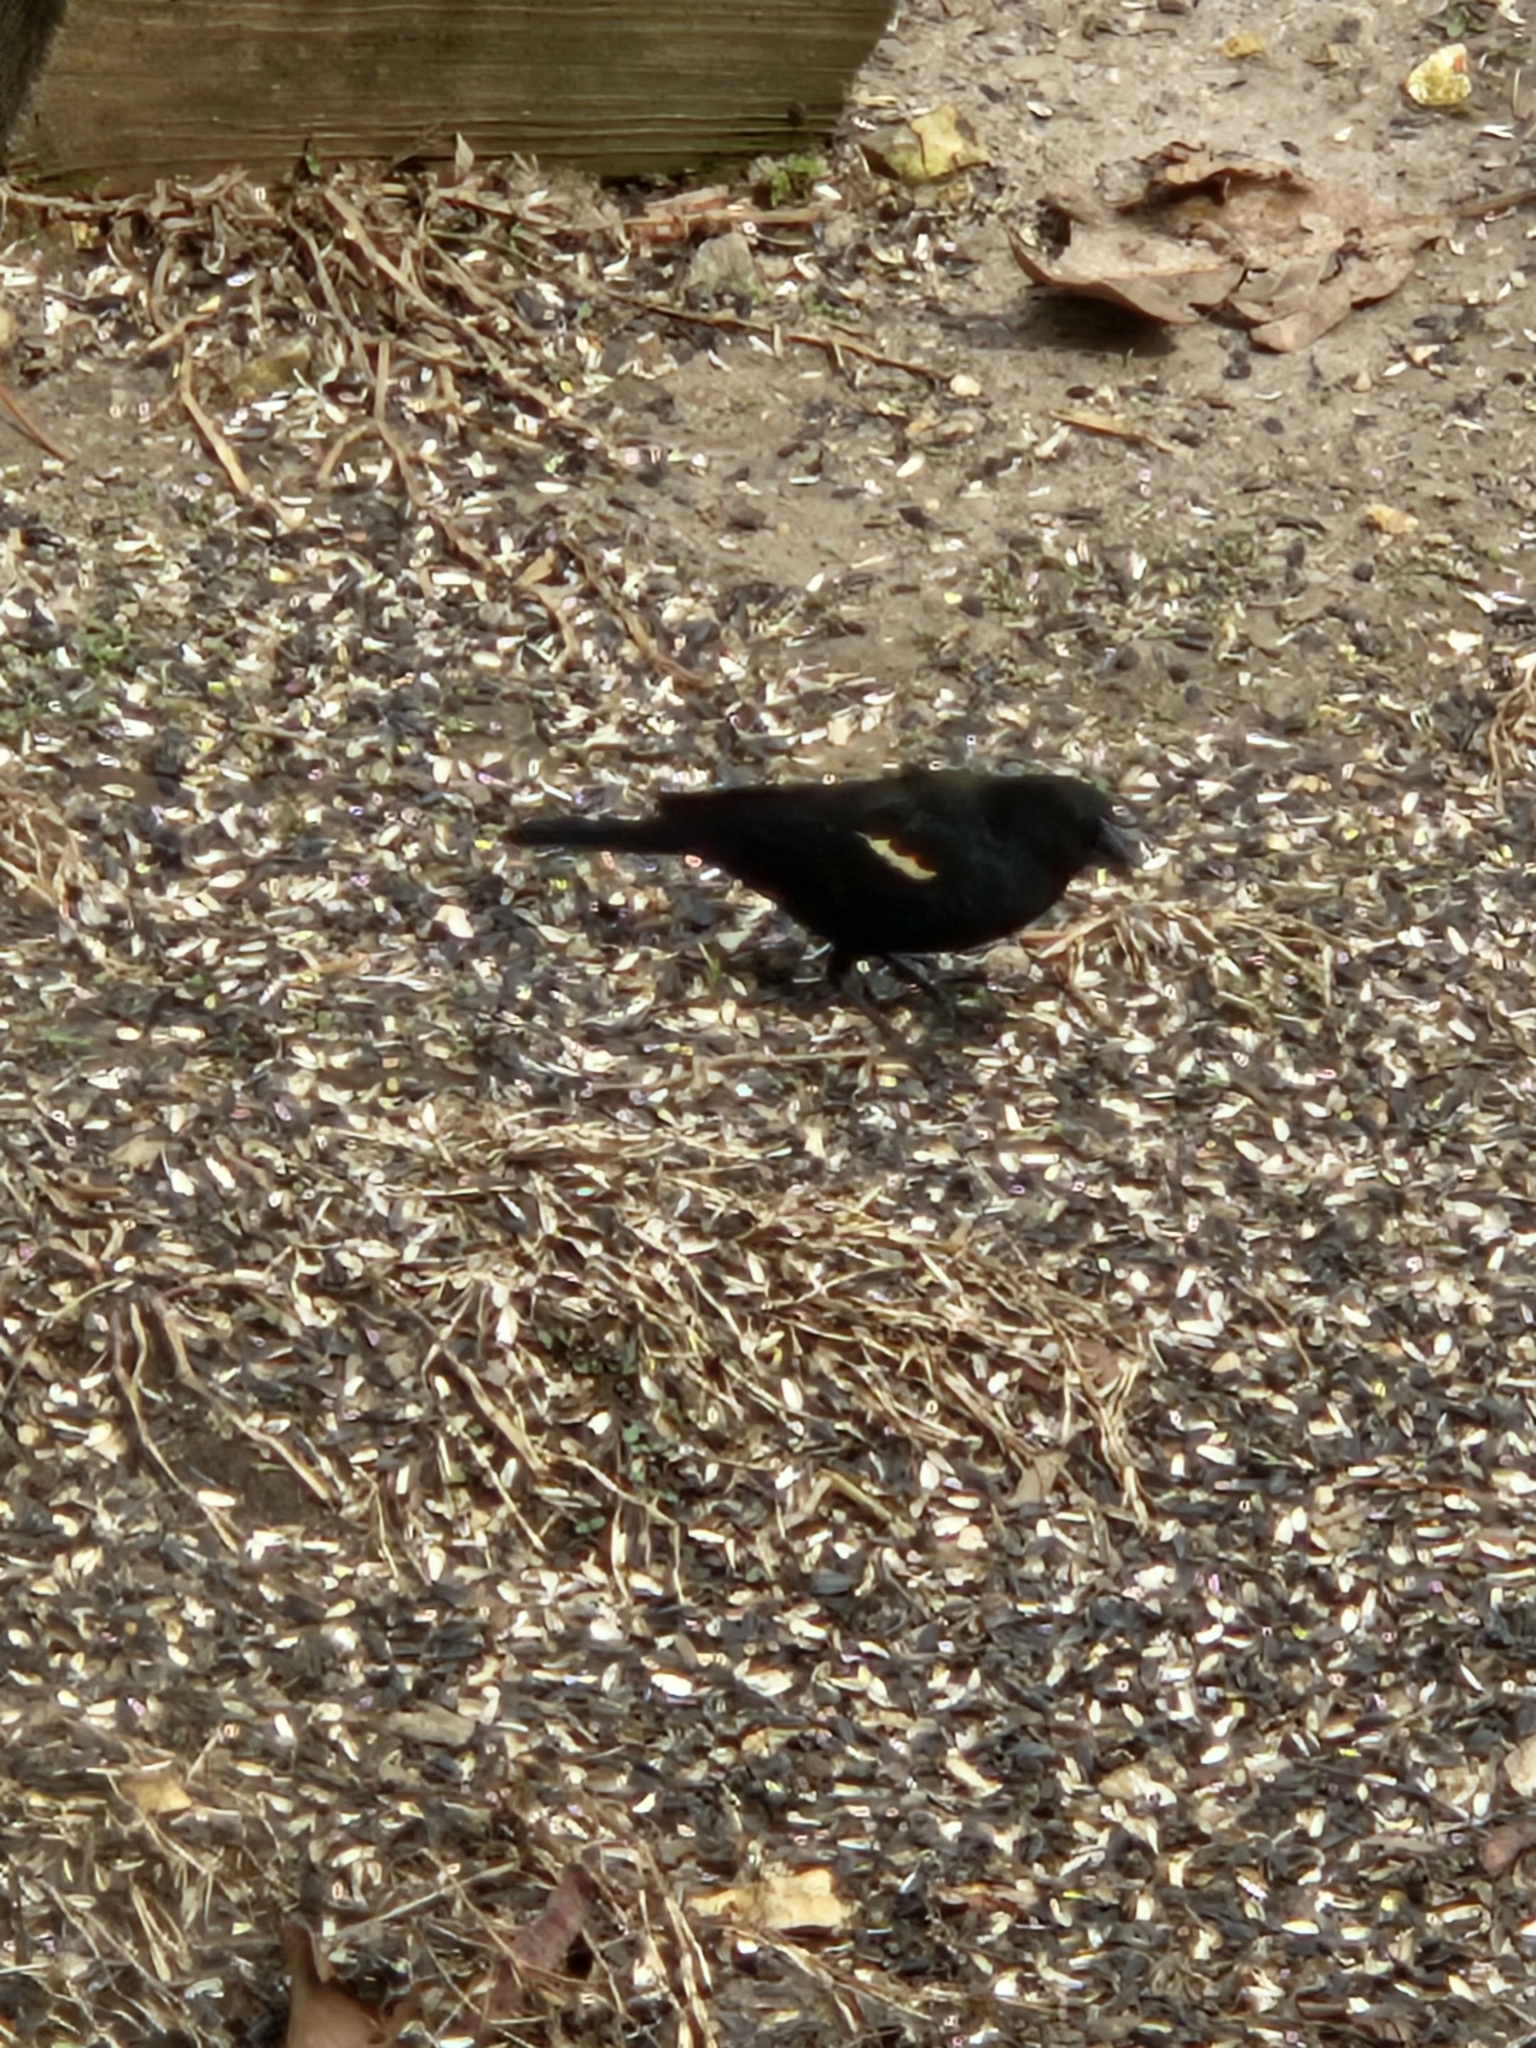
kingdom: Animalia
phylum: Chordata
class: Aves
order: Passeriformes
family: Icteridae
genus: Agelaius
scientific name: Agelaius phoeniceus
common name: Red-winged blackbird
